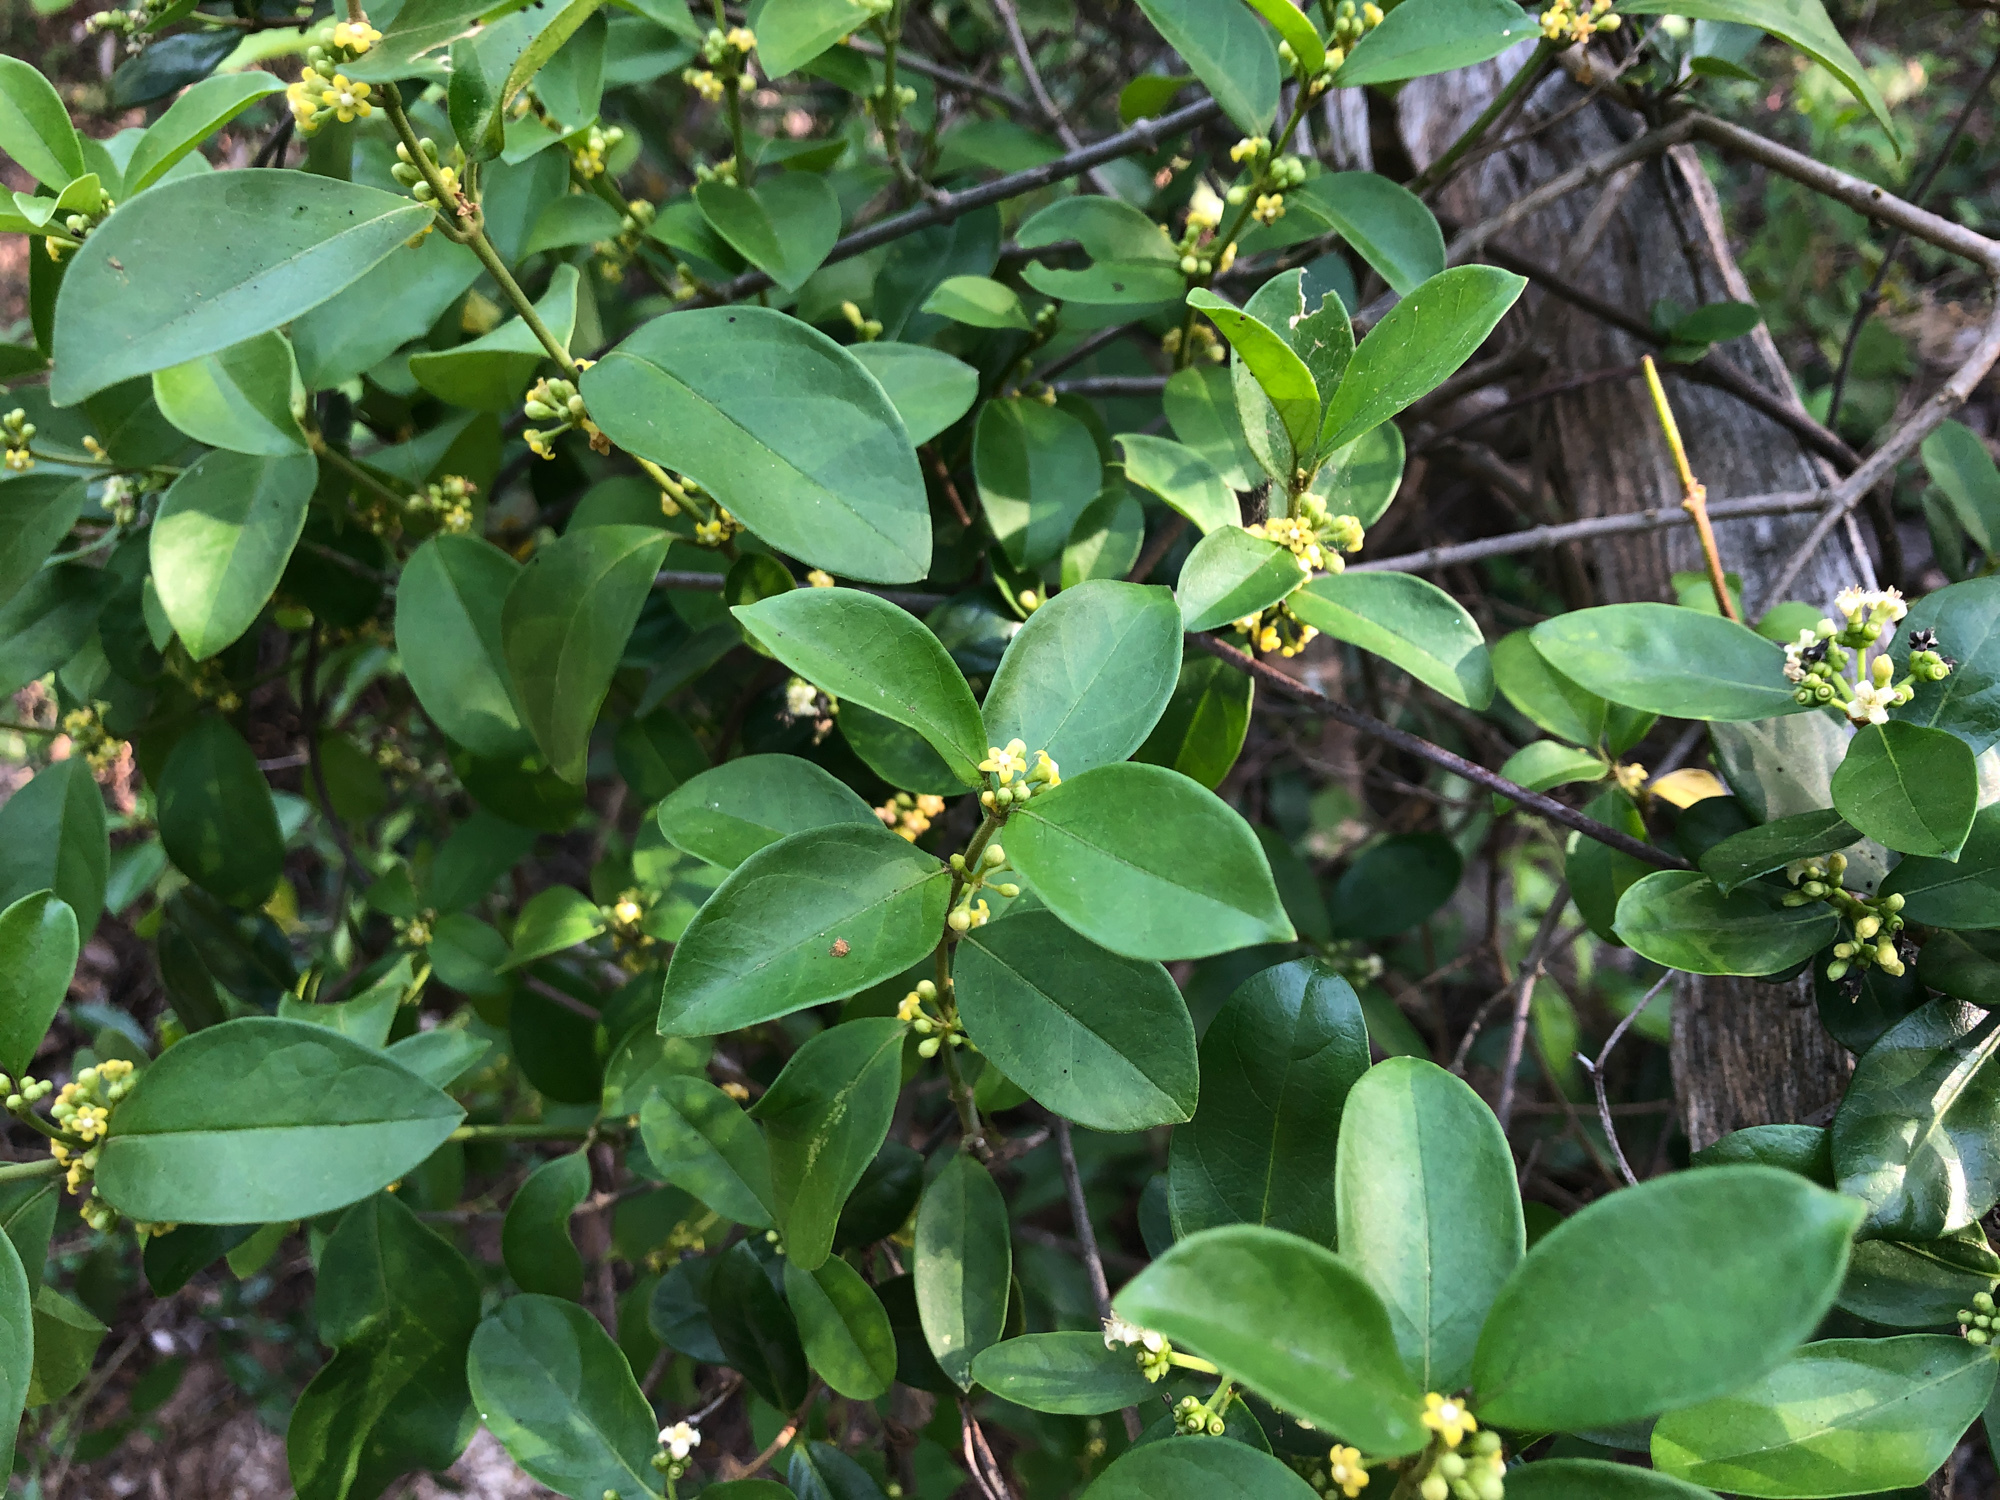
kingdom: Plantae
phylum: Tracheophyta
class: Magnoliopsida
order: Gentianales
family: Apocynaceae
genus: Gymnema
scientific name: Gymnema sylvestre
